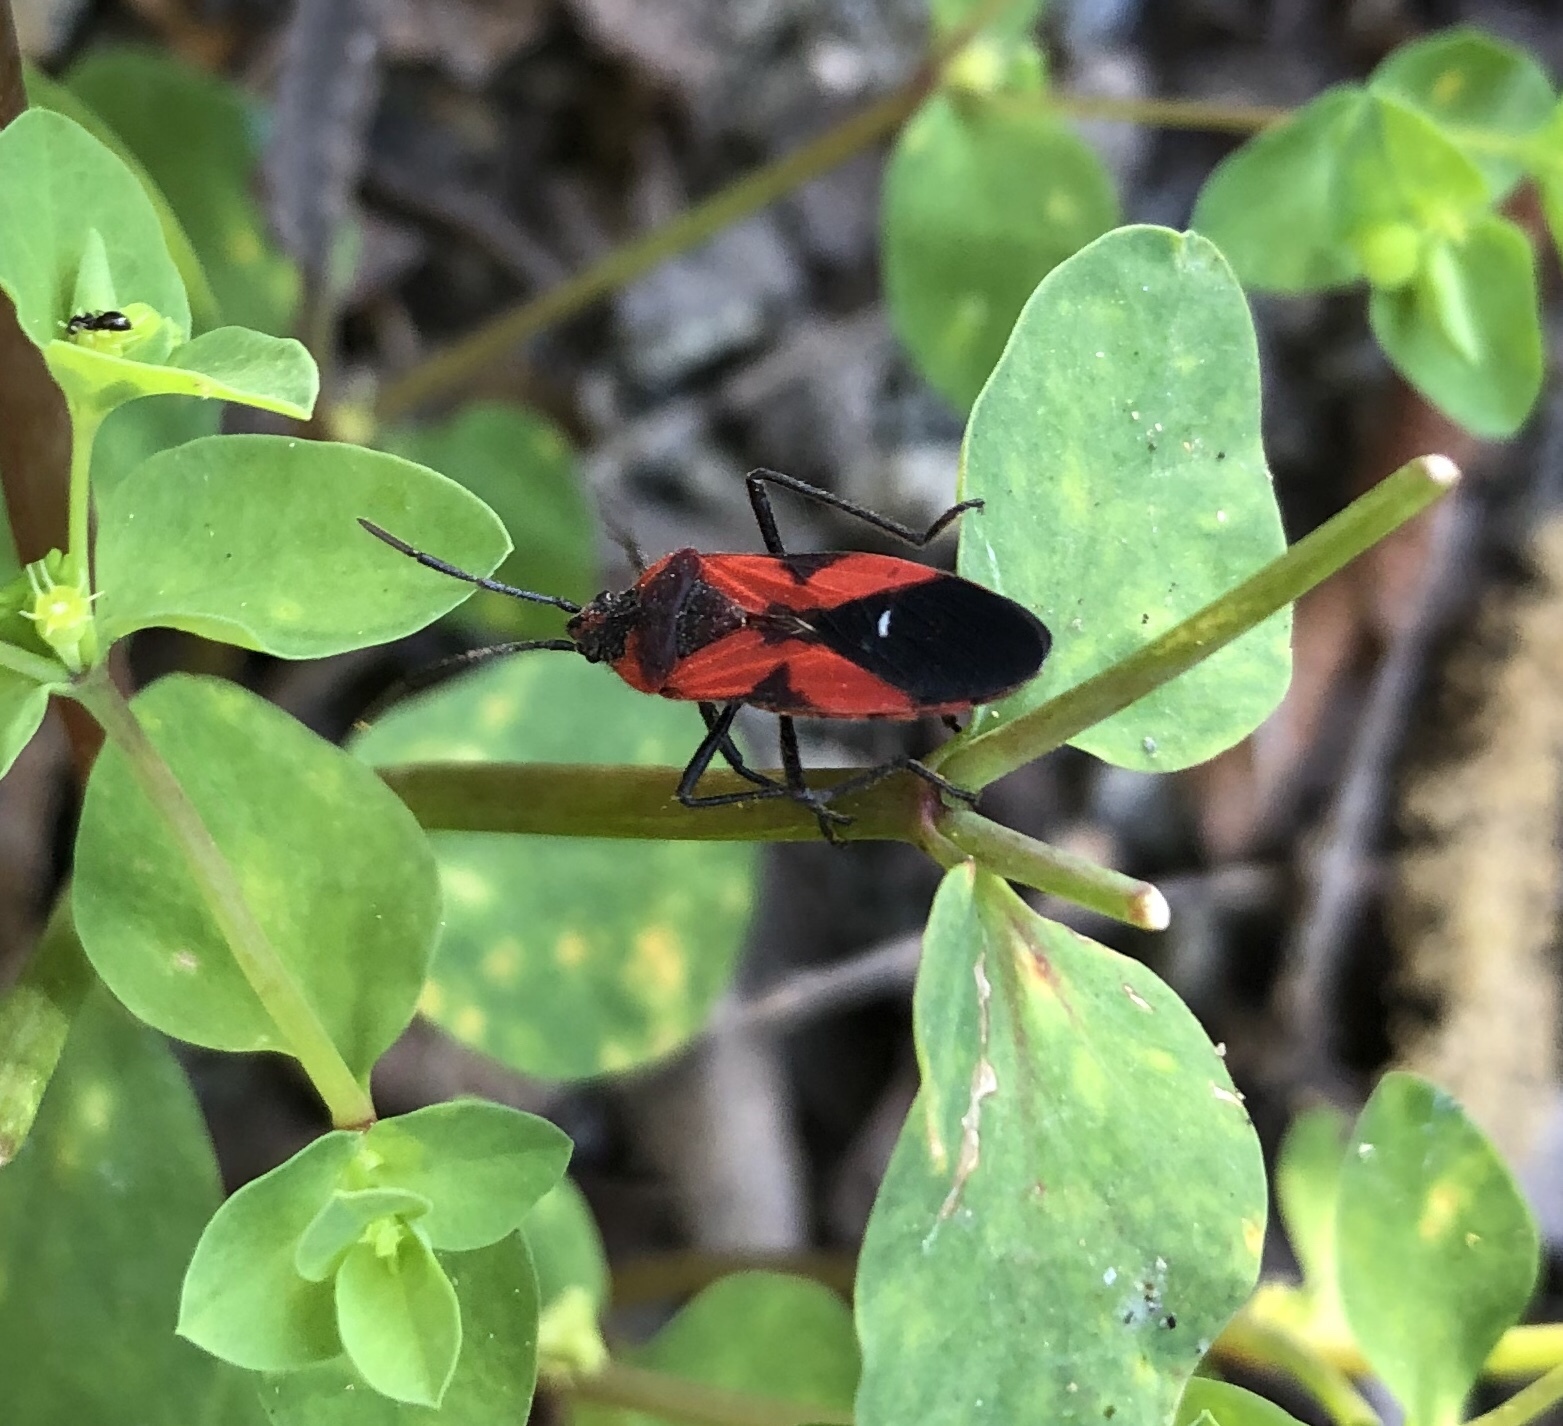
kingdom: Animalia
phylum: Arthropoda
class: Insecta
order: Hemiptera
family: Lygaeidae
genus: Oncopeltus
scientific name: Oncopeltus sanguinolentus
